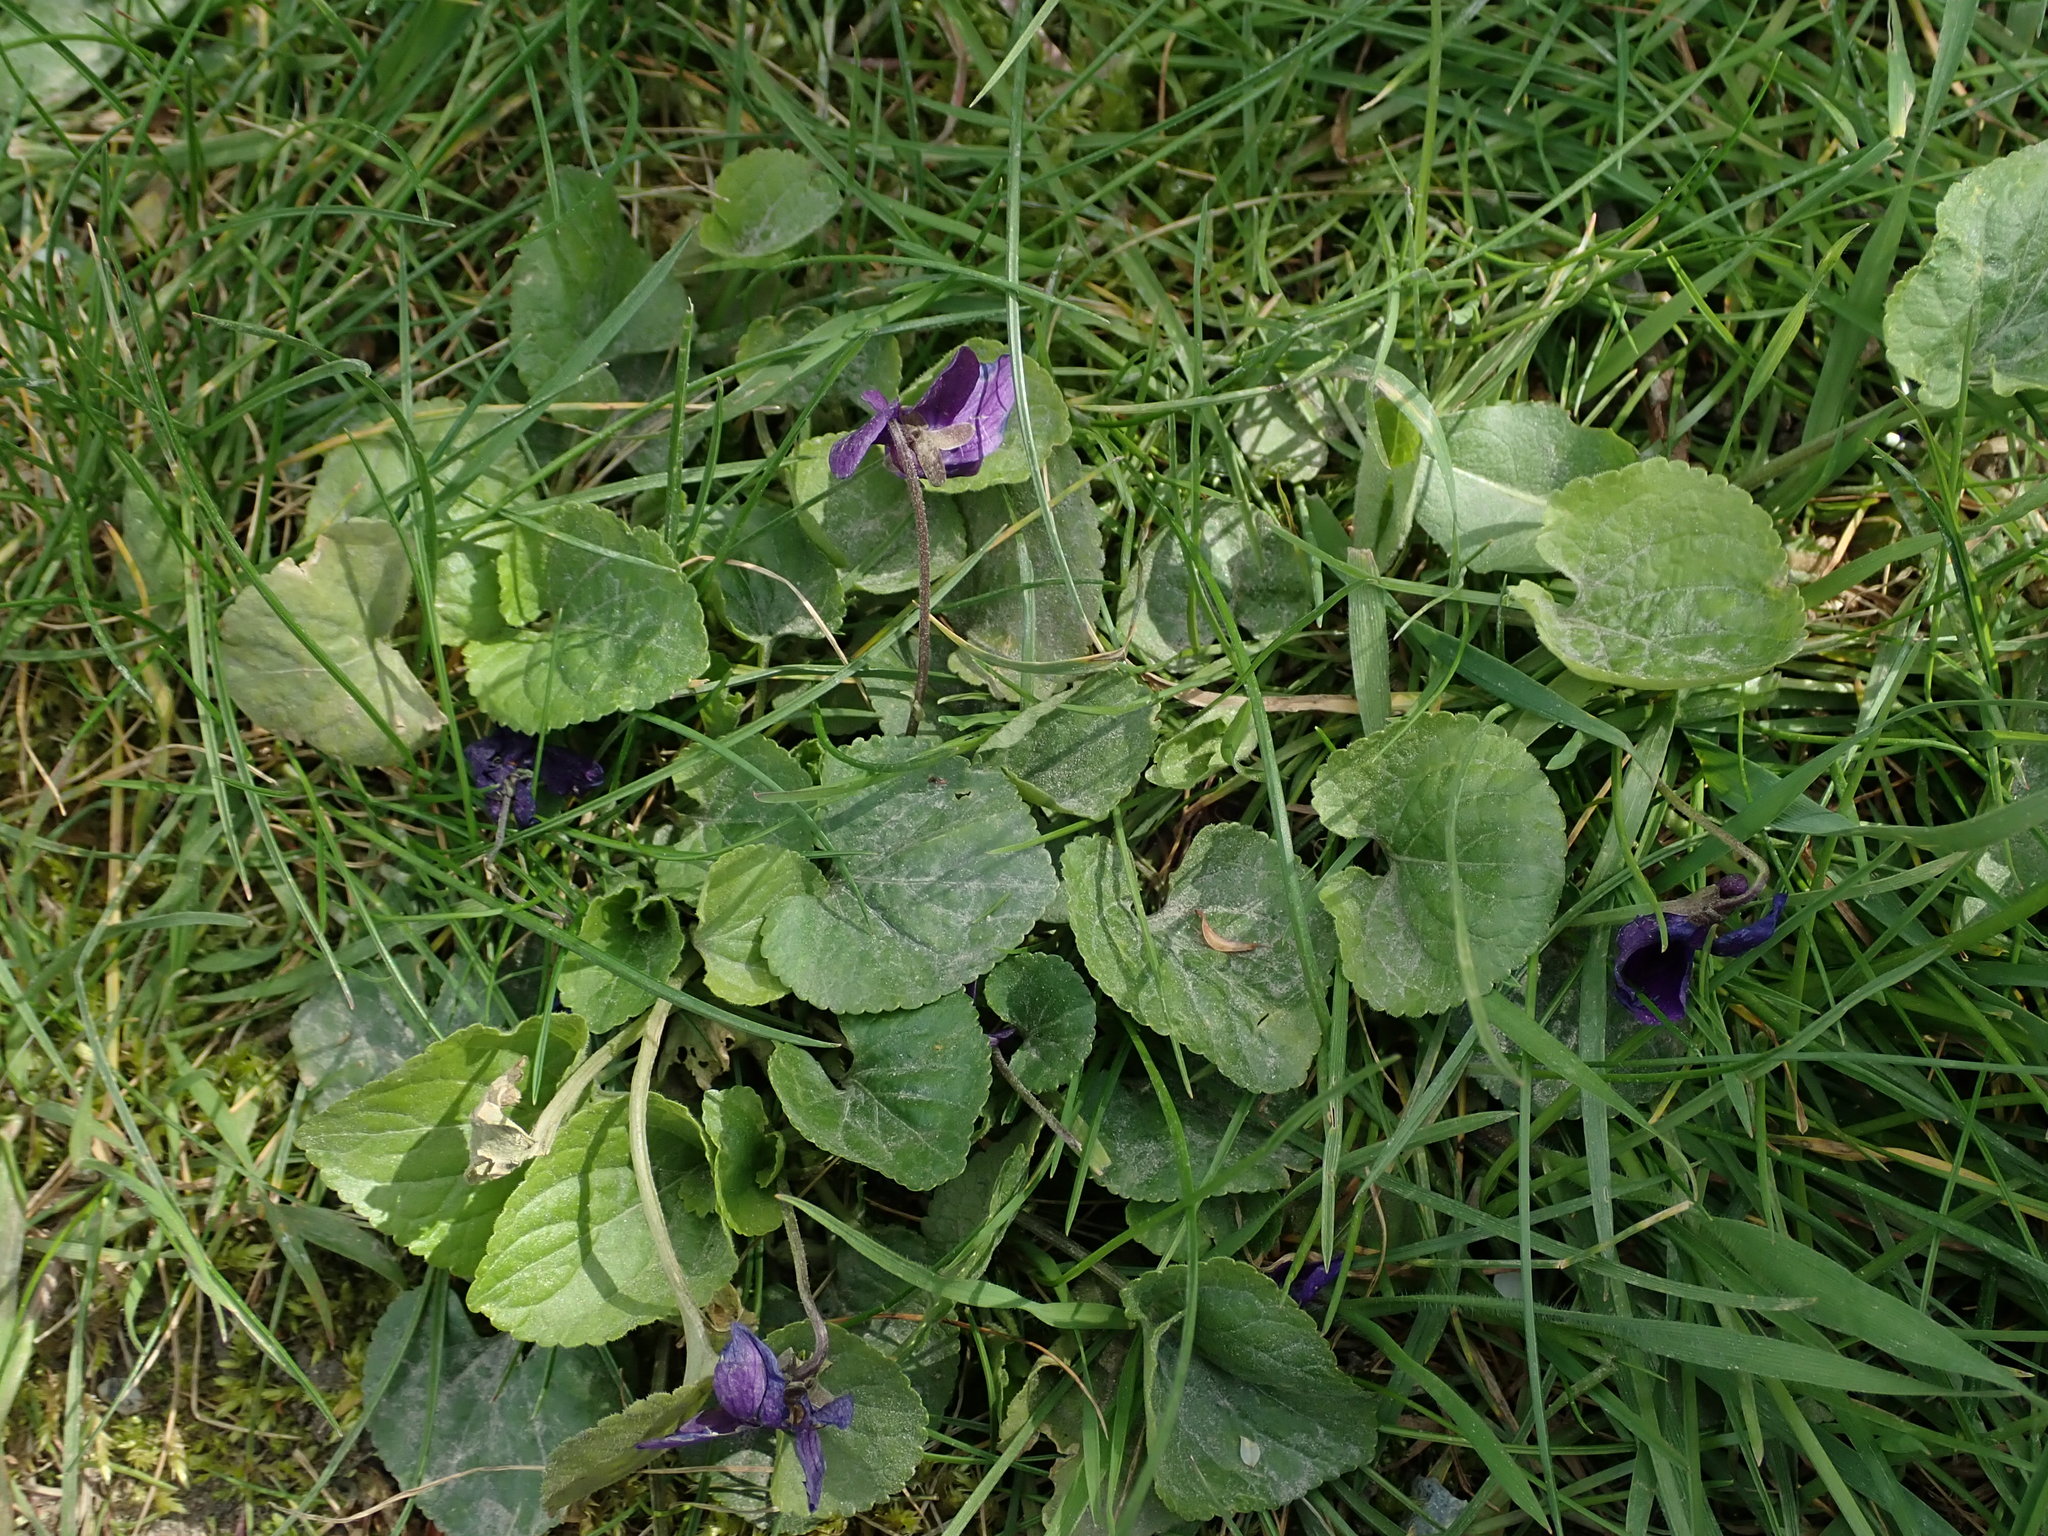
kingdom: Plantae
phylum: Tracheophyta
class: Magnoliopsida
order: Malpighiales
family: Violaceae
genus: Viola
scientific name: Viola odorata
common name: Sweet violet
